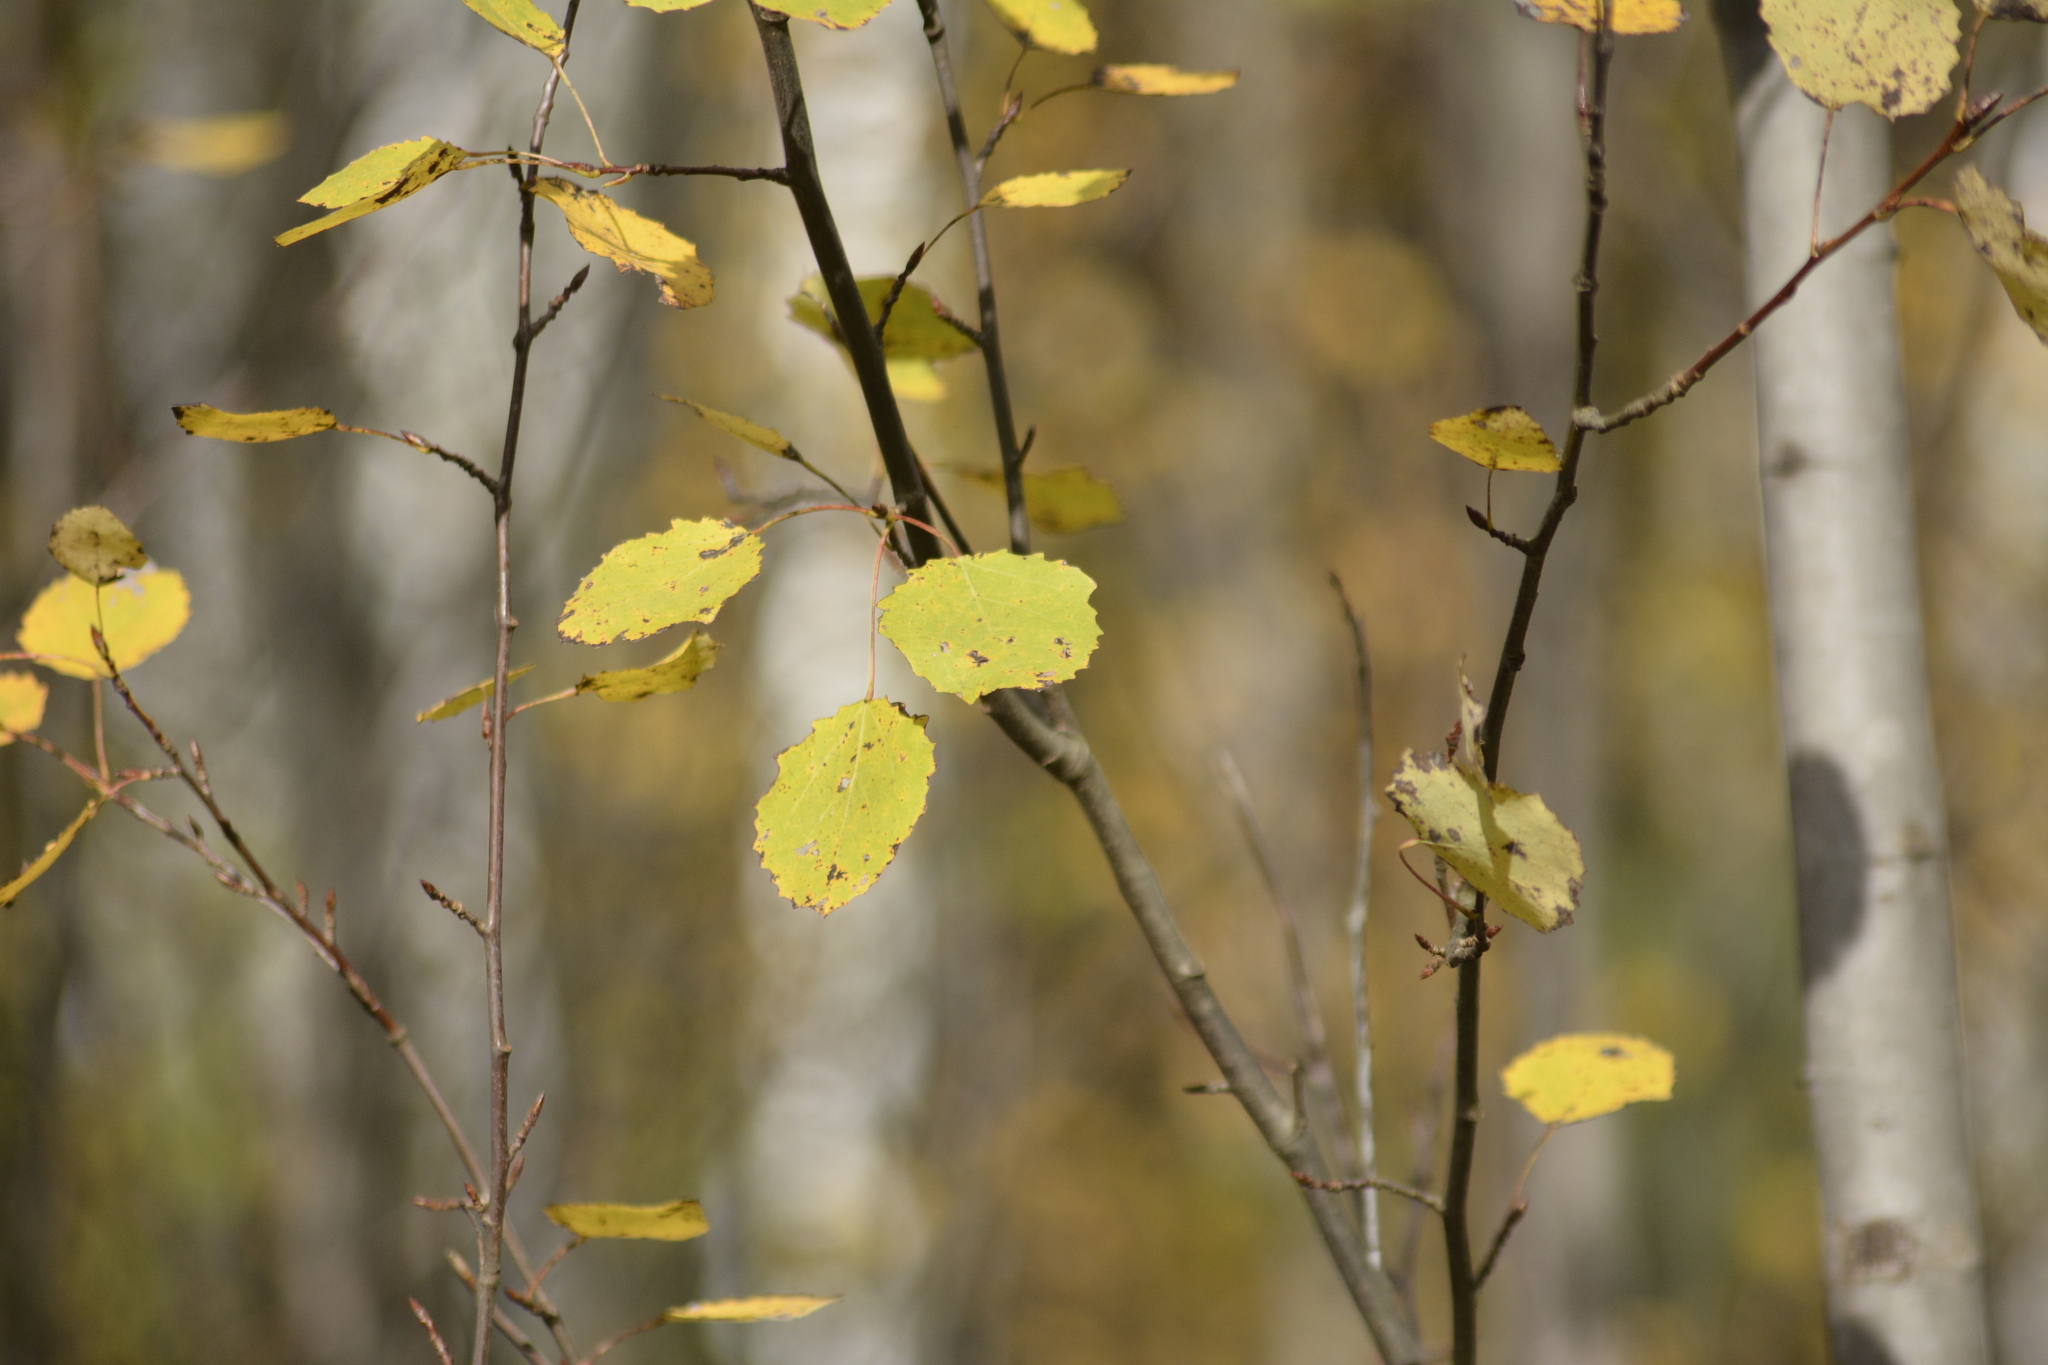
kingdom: Plantae
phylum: Tracheophyta
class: Magnoliopsida
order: Malpighiales
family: Salicaceae
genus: Populus
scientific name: Populus tremula
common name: European aspen
